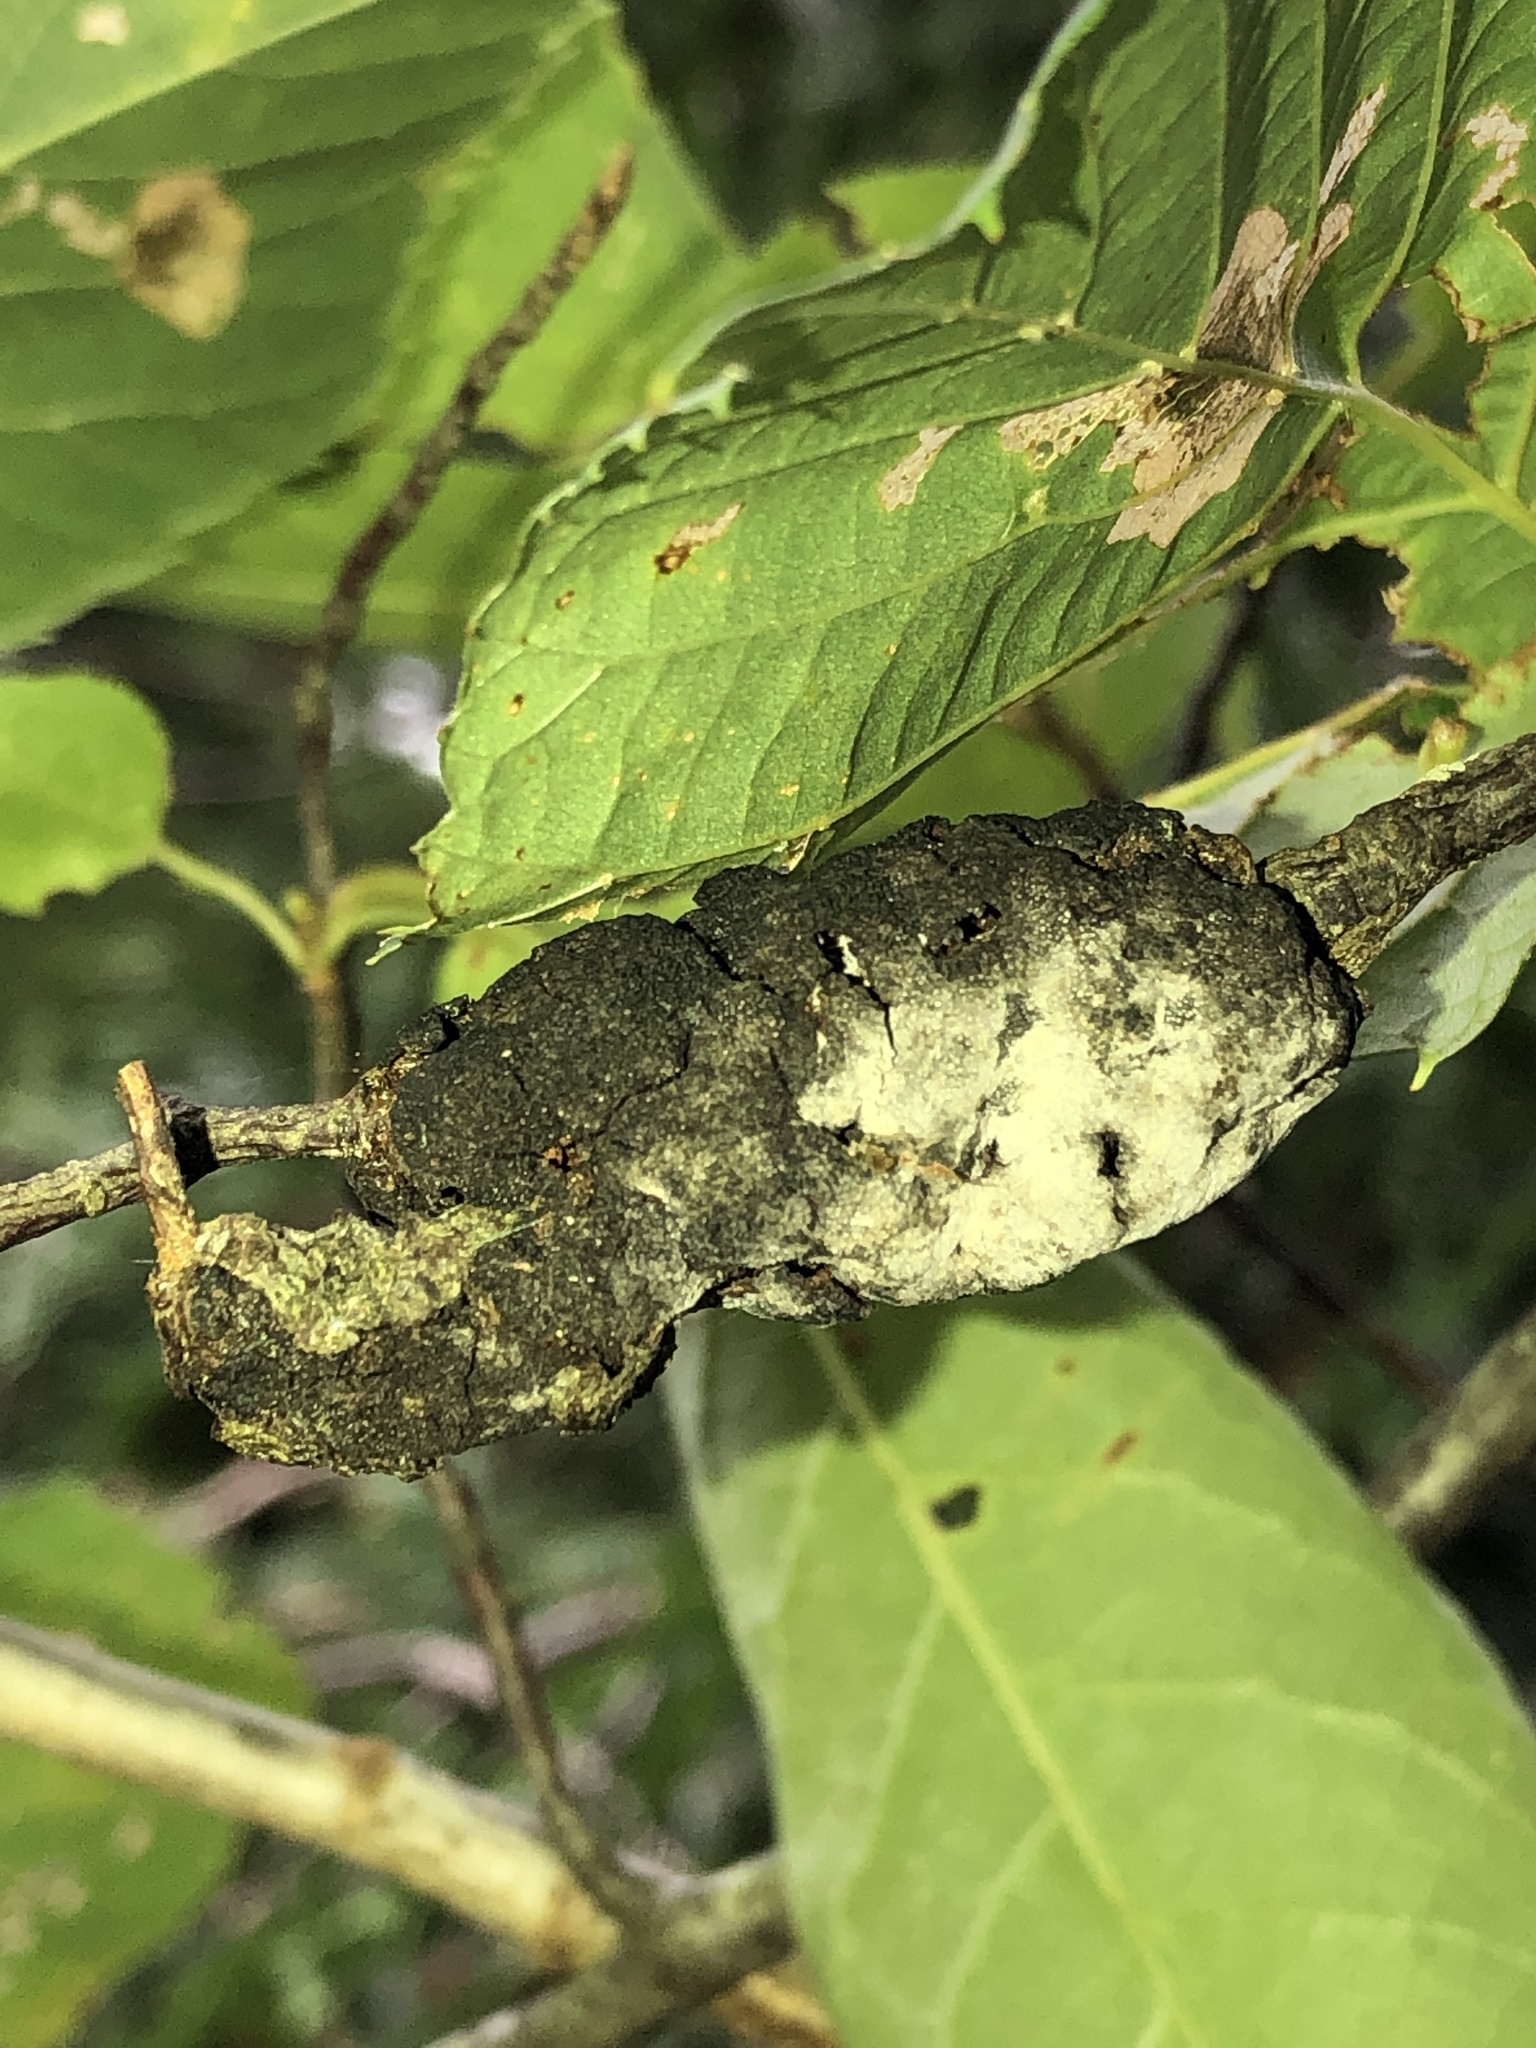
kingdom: Fungi
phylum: Ascomycota
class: Dothideomycetes
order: Venturiales
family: Venturiaceae
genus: Apiosporina
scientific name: Apiosporina morbosa
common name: Black knot
